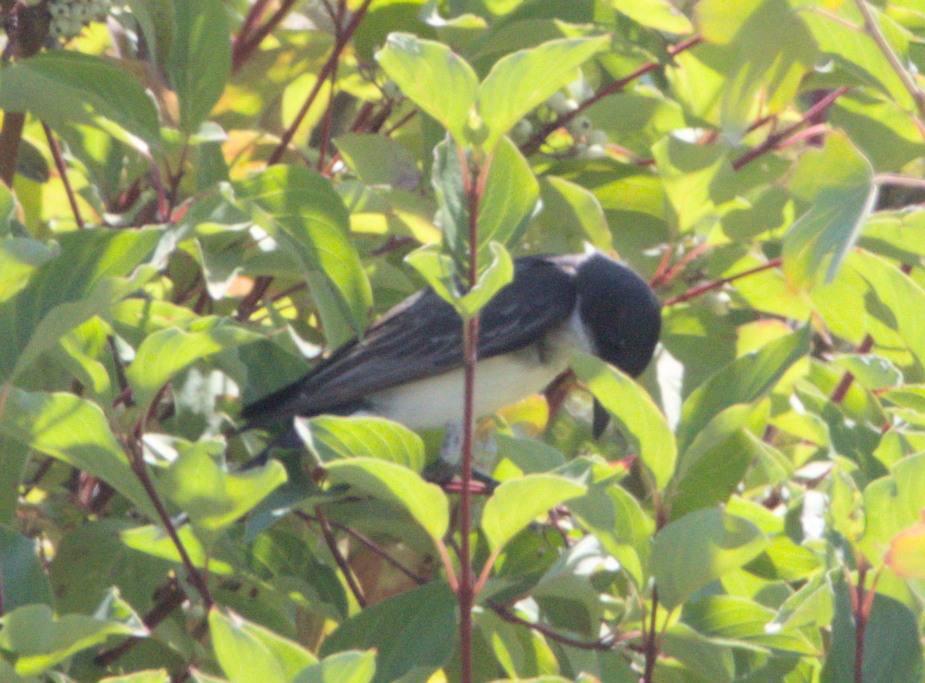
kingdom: Animalia
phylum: Chordata
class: Aves
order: Passeriformes
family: Tyrannidae
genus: Tyrannus
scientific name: Tyrannus tyrannus
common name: Eastern kingbird
